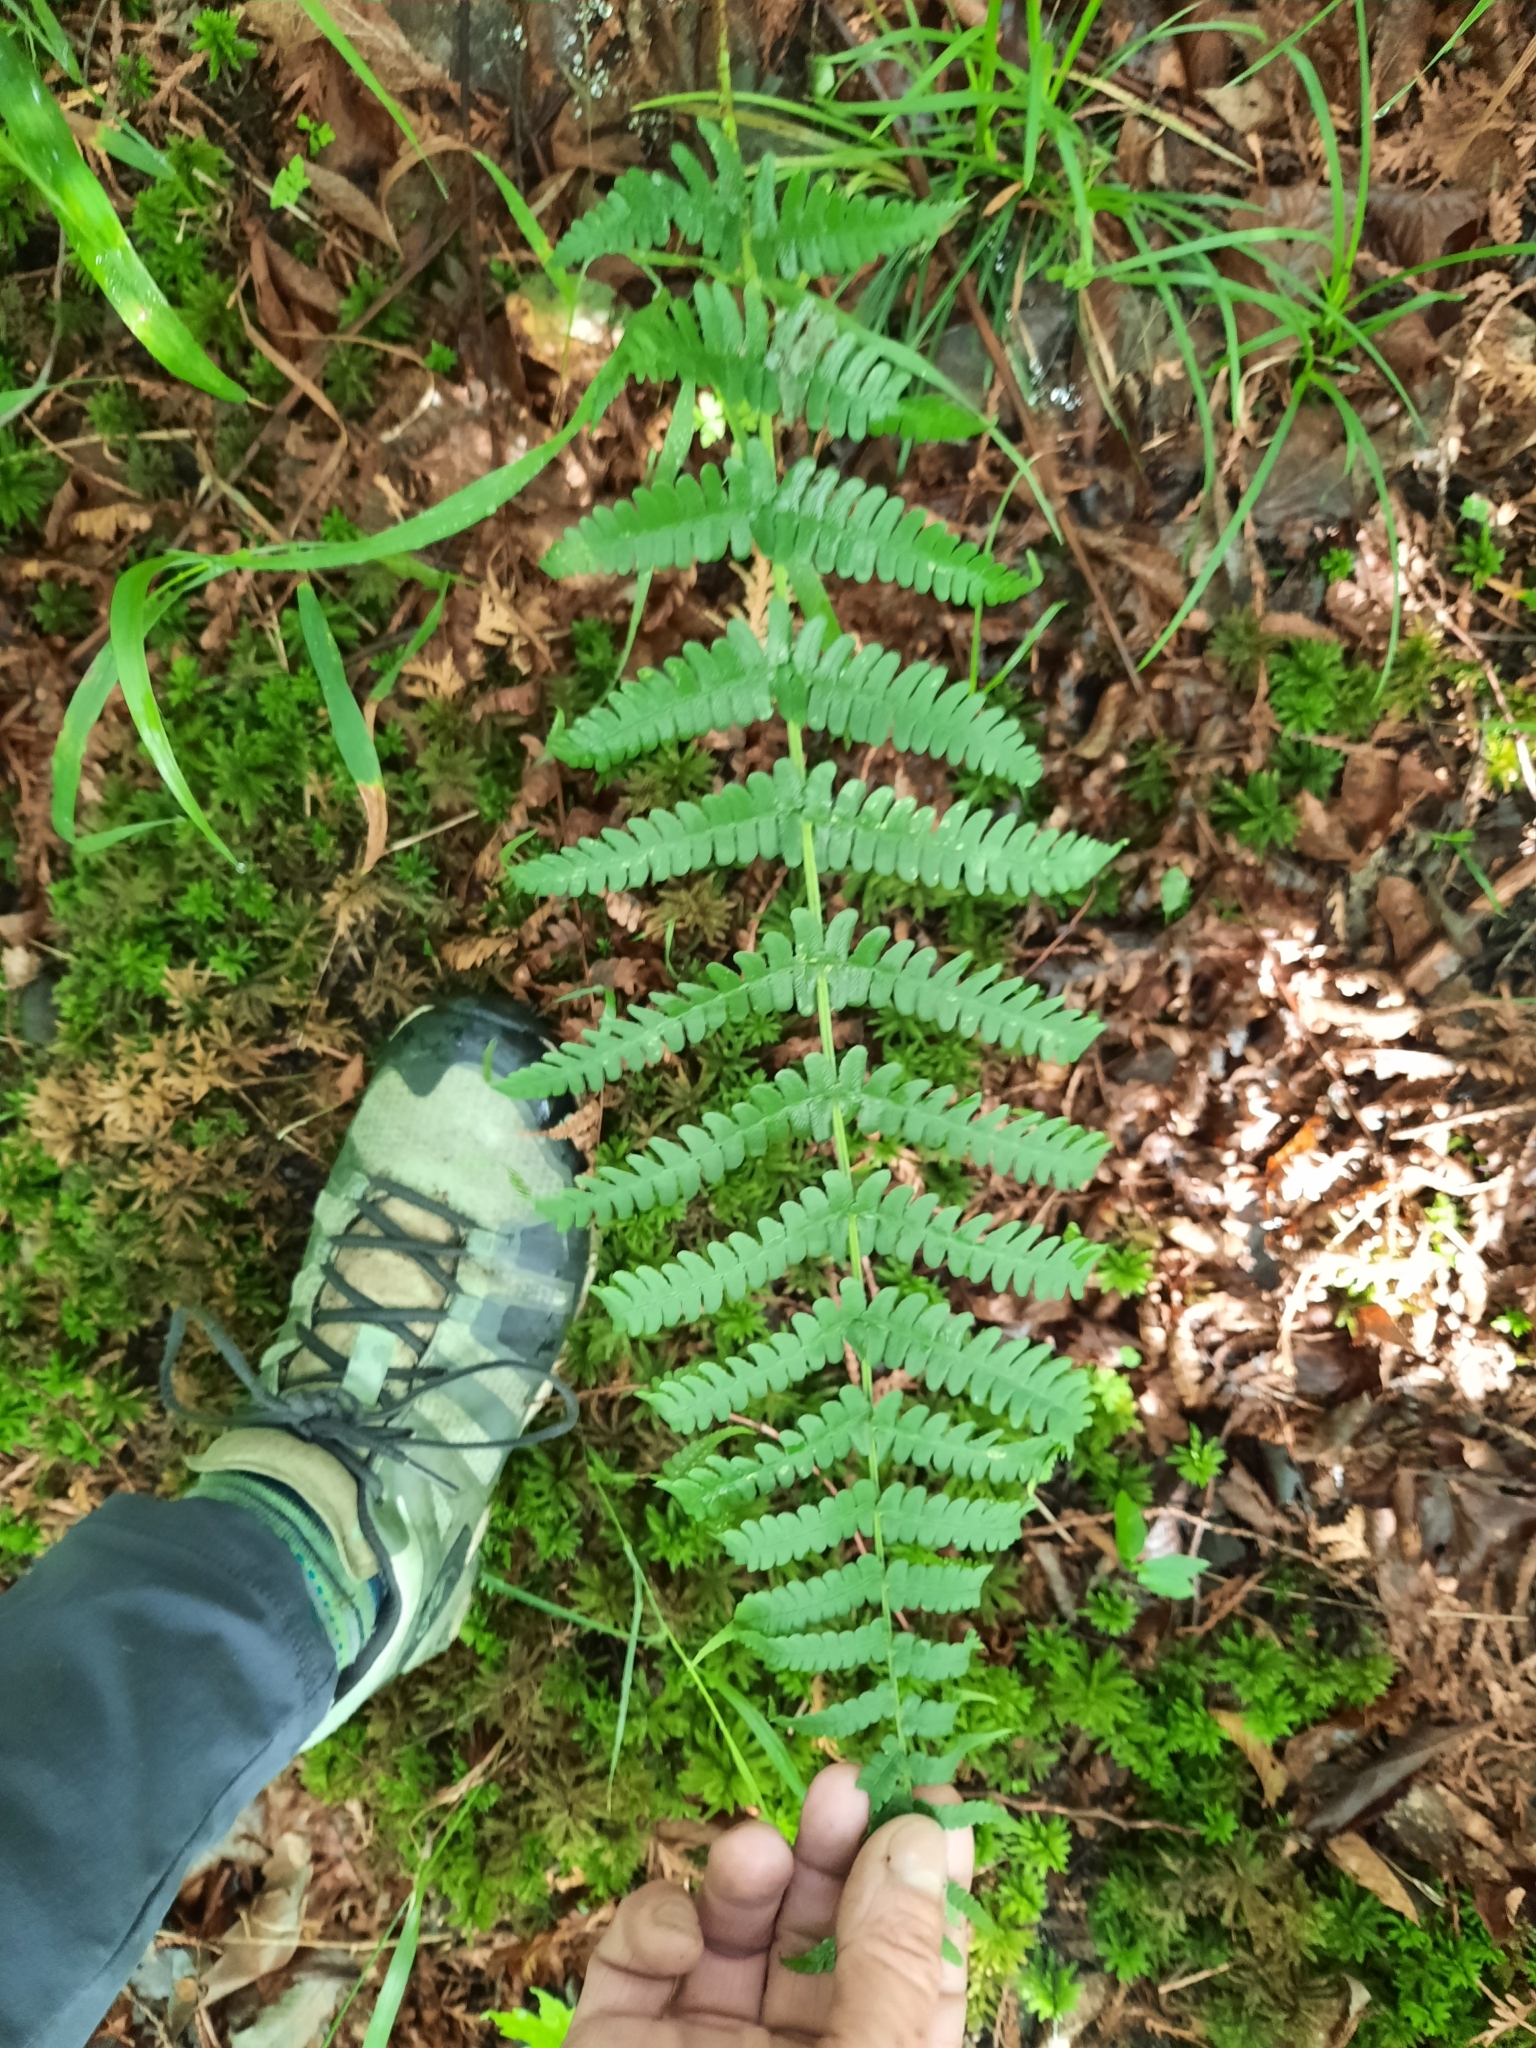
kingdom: Plantae
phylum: Tracheophyta
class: Polypodiopsida
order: Polypodiales
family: Dryopteridaceae
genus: Dryopteris
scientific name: Dryopteris marginalis
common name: Marginal wood fern
